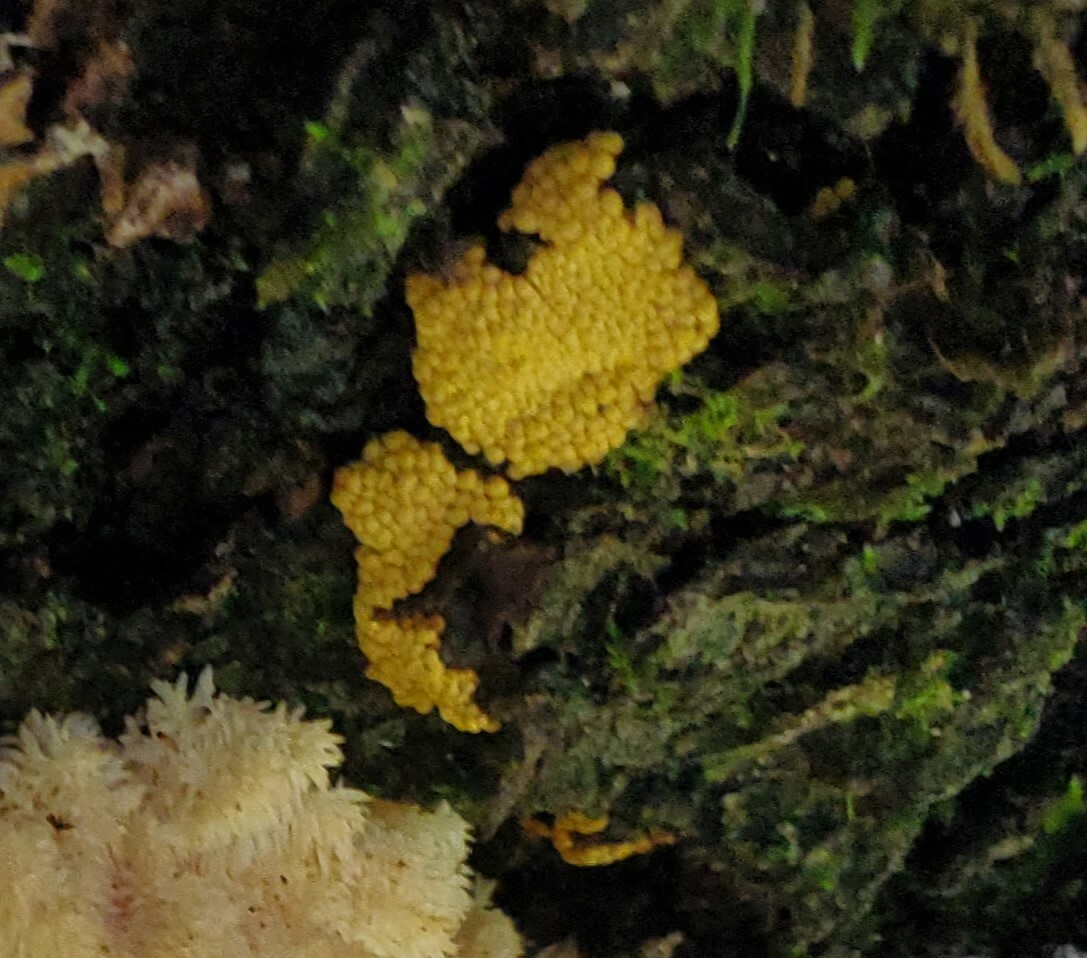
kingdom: Protozoa
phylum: Mycetozoa
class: Myxomycetes
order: Trichiales
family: Trichiaceae
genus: Trichia
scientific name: Trichia varia
